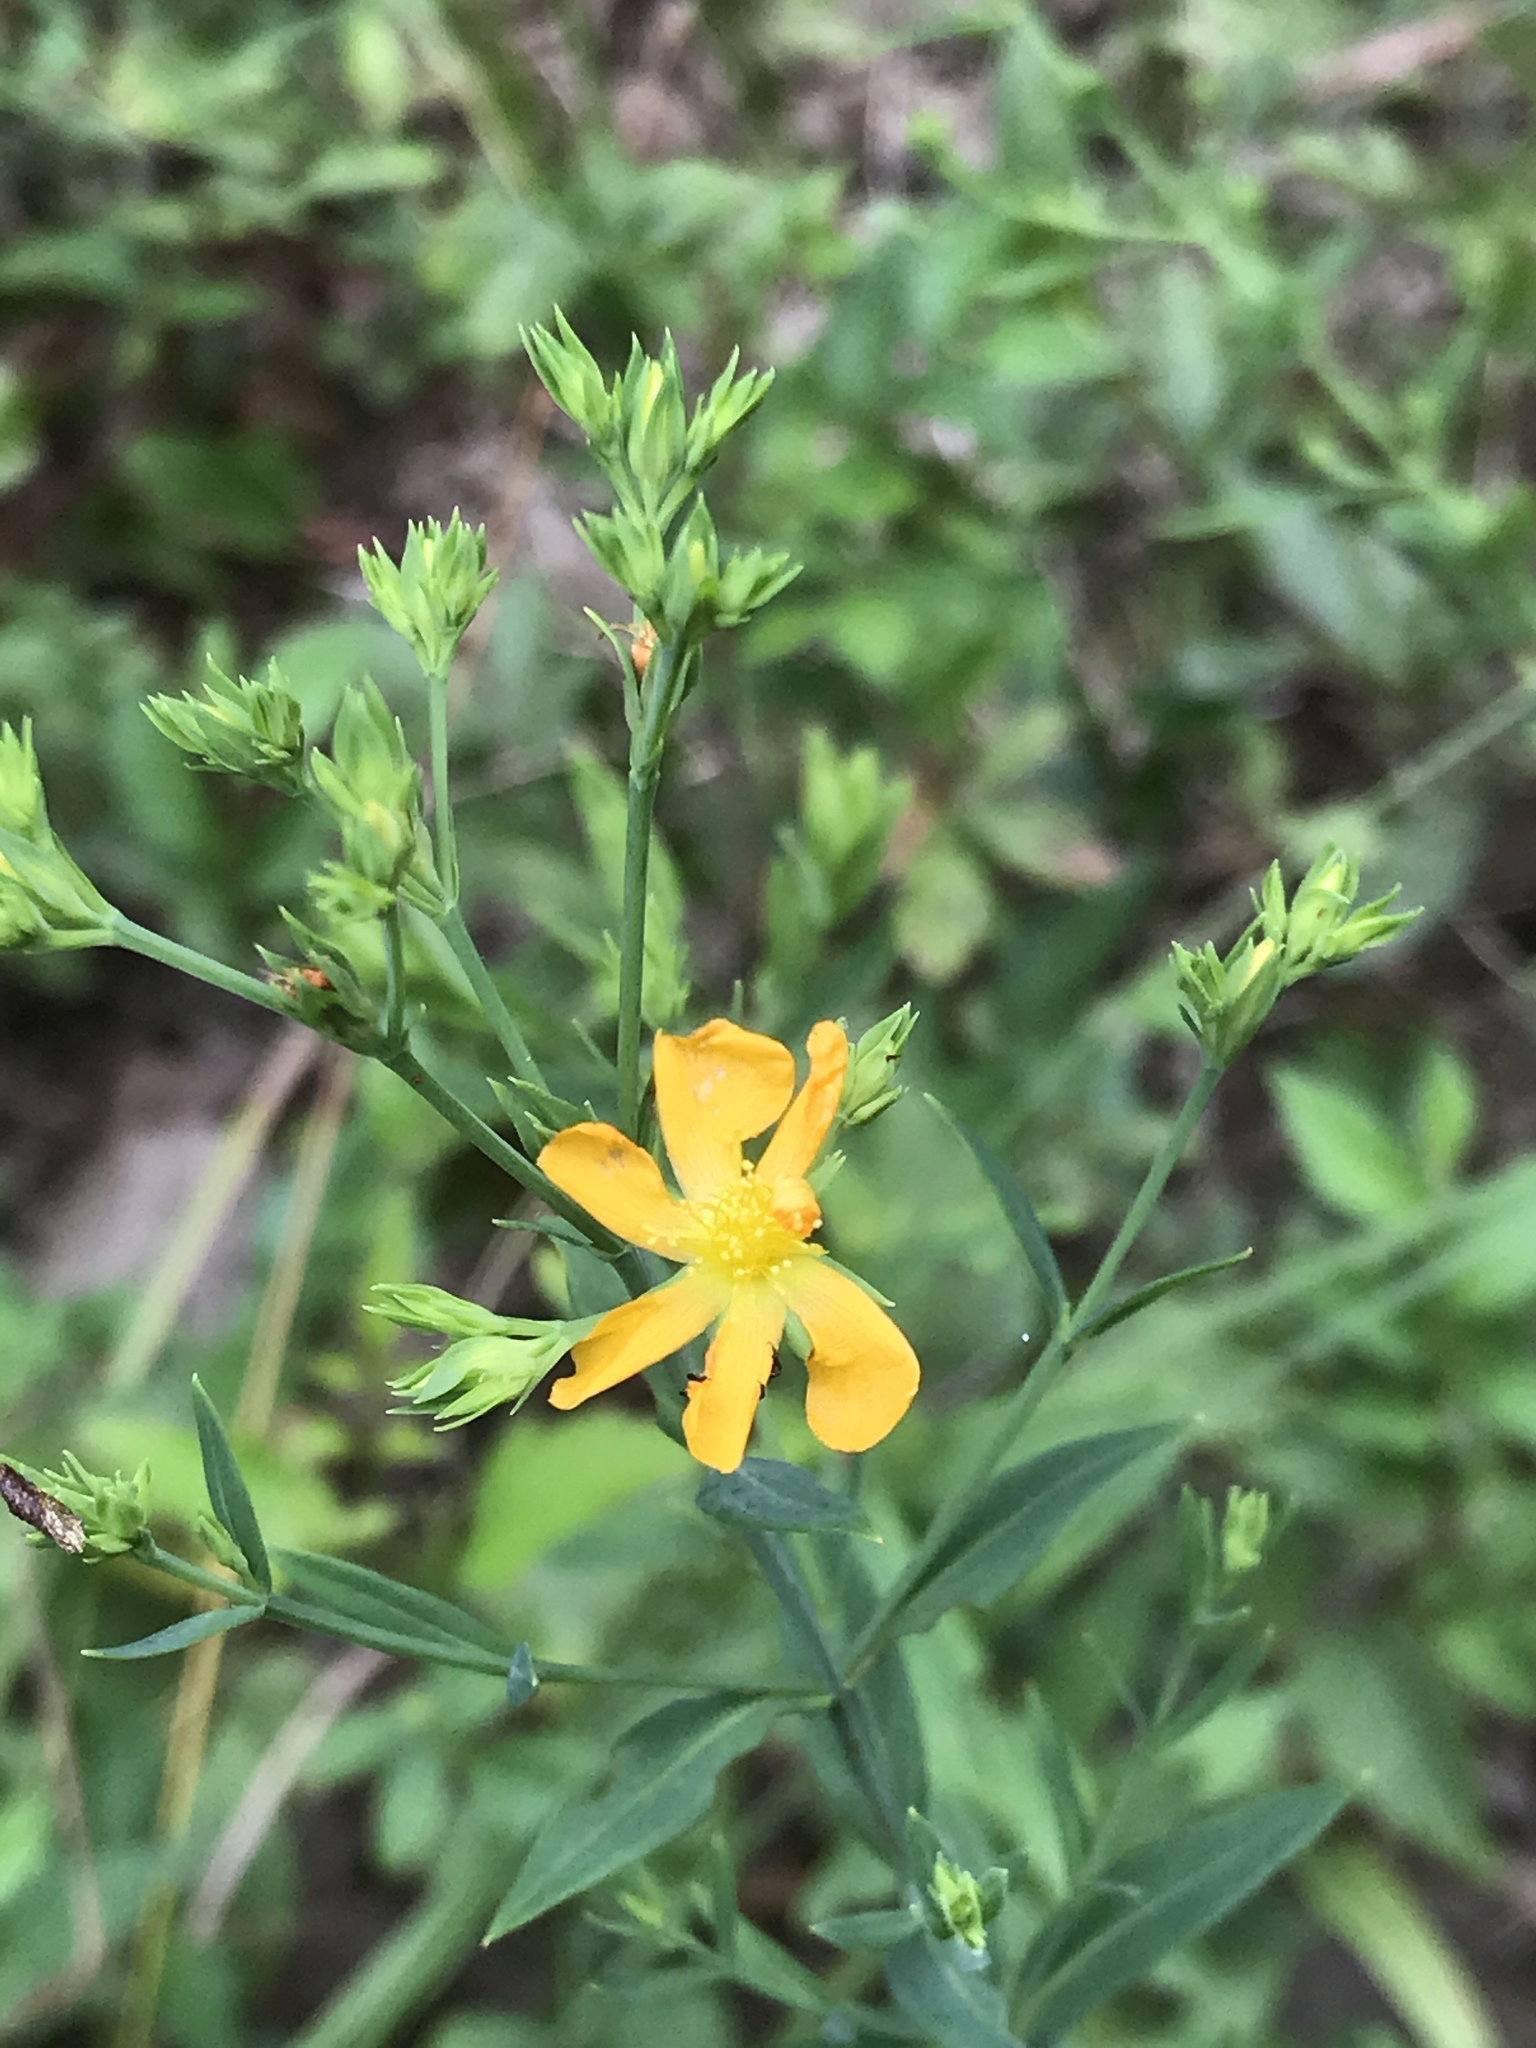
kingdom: Plantae
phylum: Tracheophyta
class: Magnoliopsida
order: Malpighiales
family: Hypericaceae
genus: Hypericum
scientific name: Hypericum virgatum
